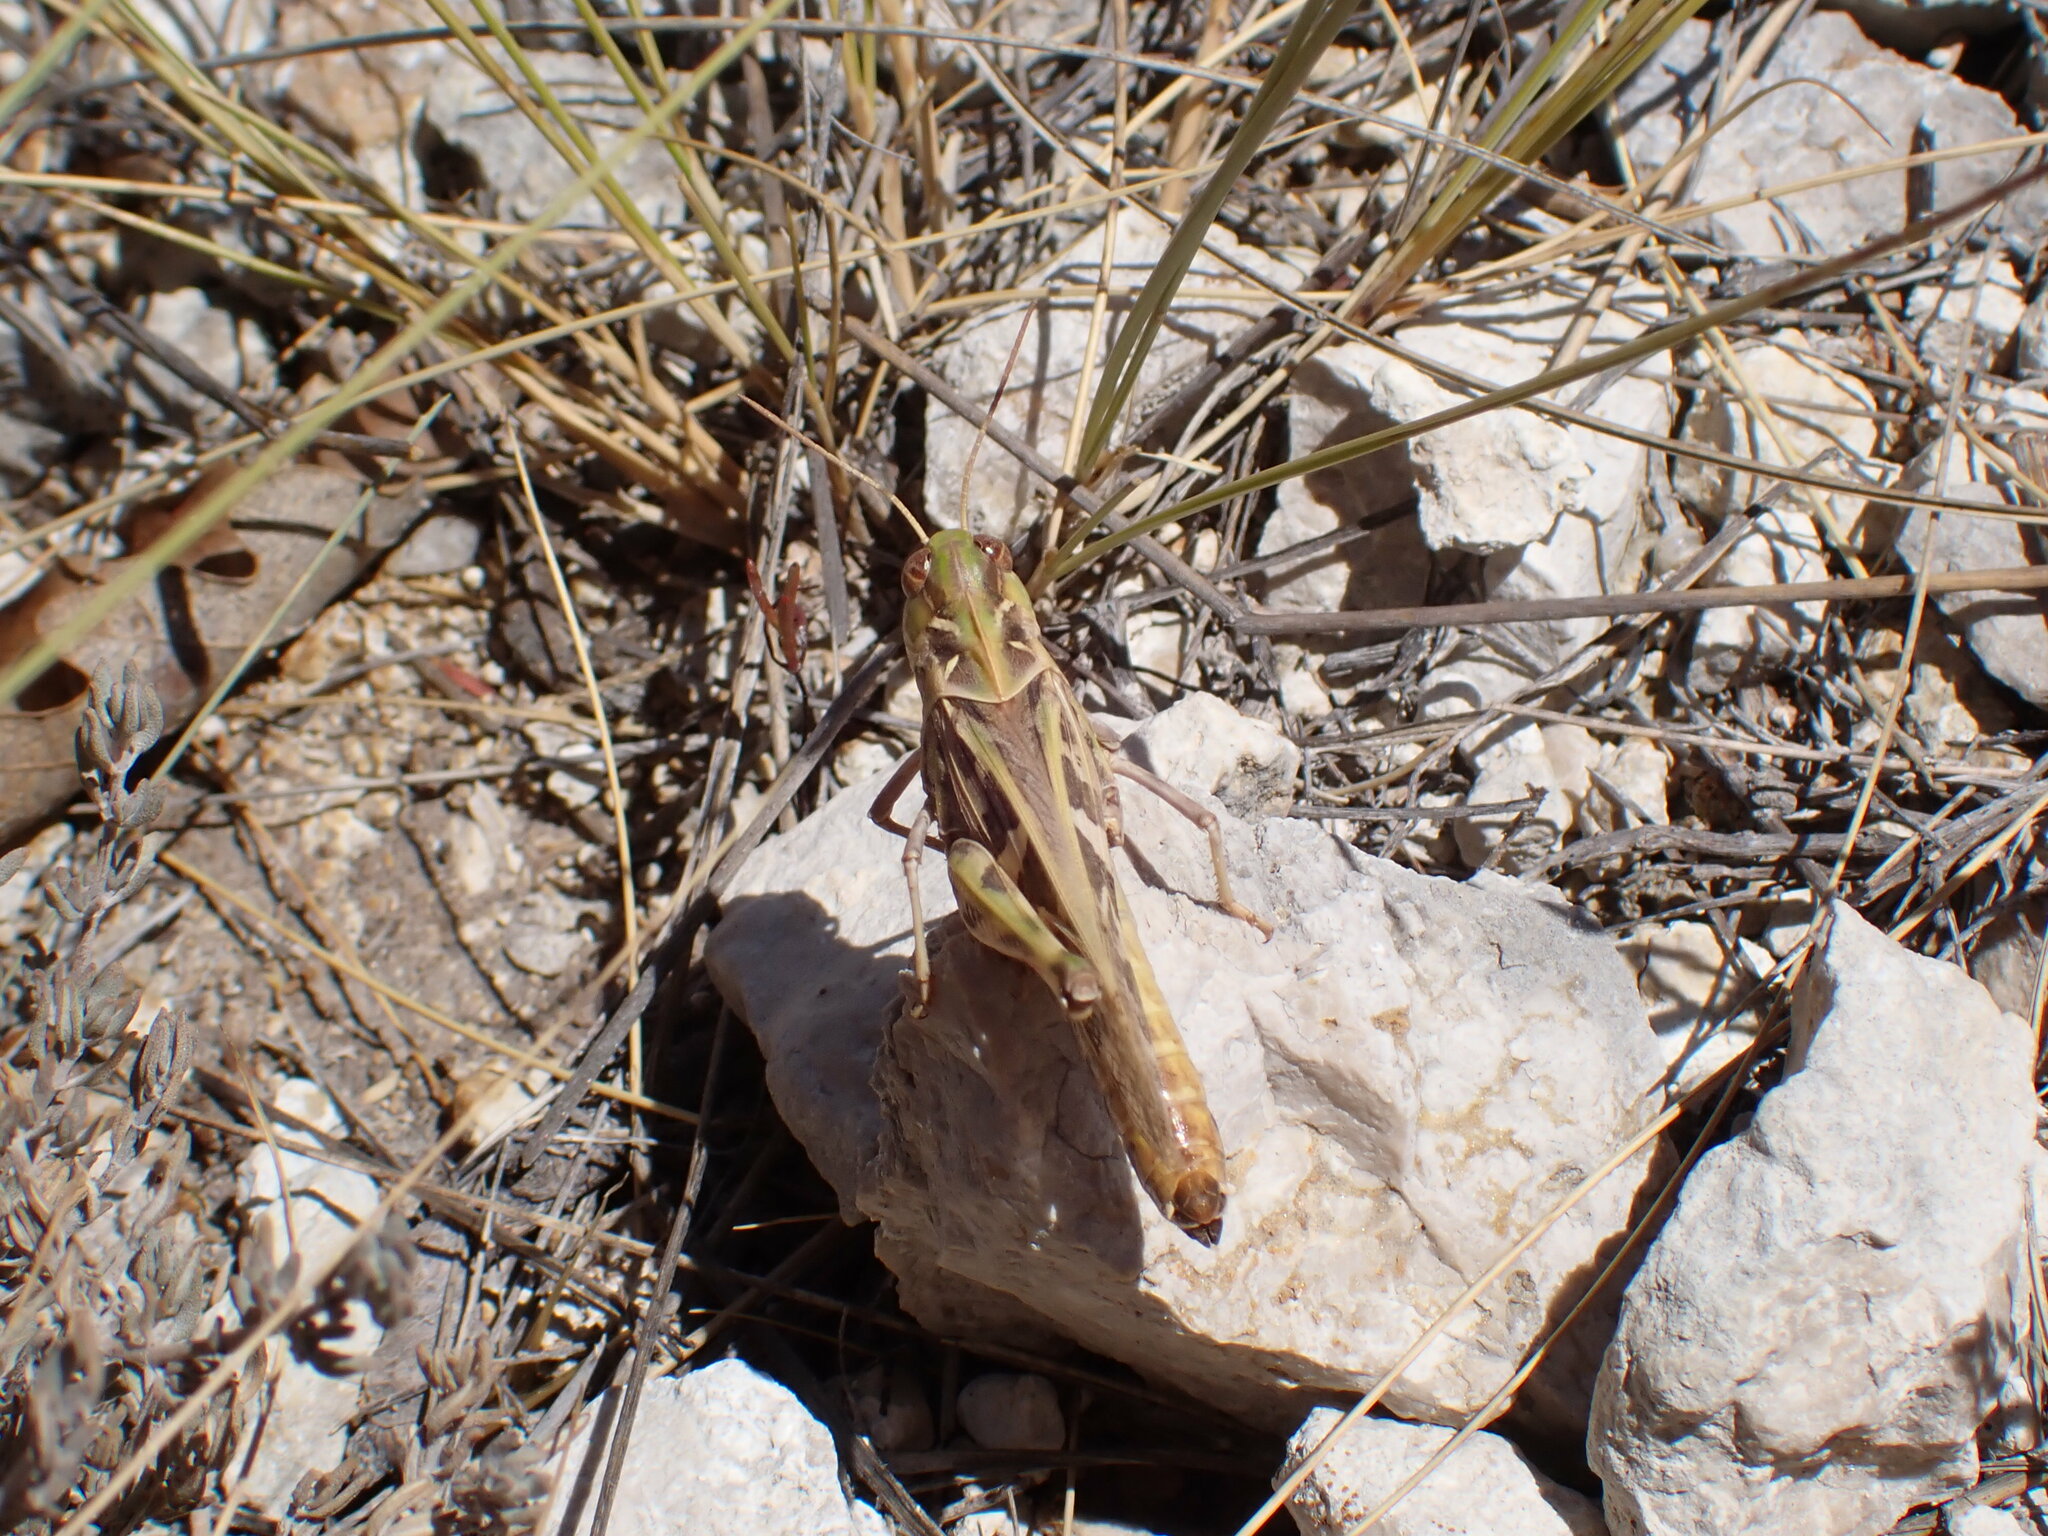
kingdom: Animalia
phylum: Arthropoda
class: Insecta
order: Orthoptera
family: Acrididae
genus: Oedaleus
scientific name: Oedaleus decorus
